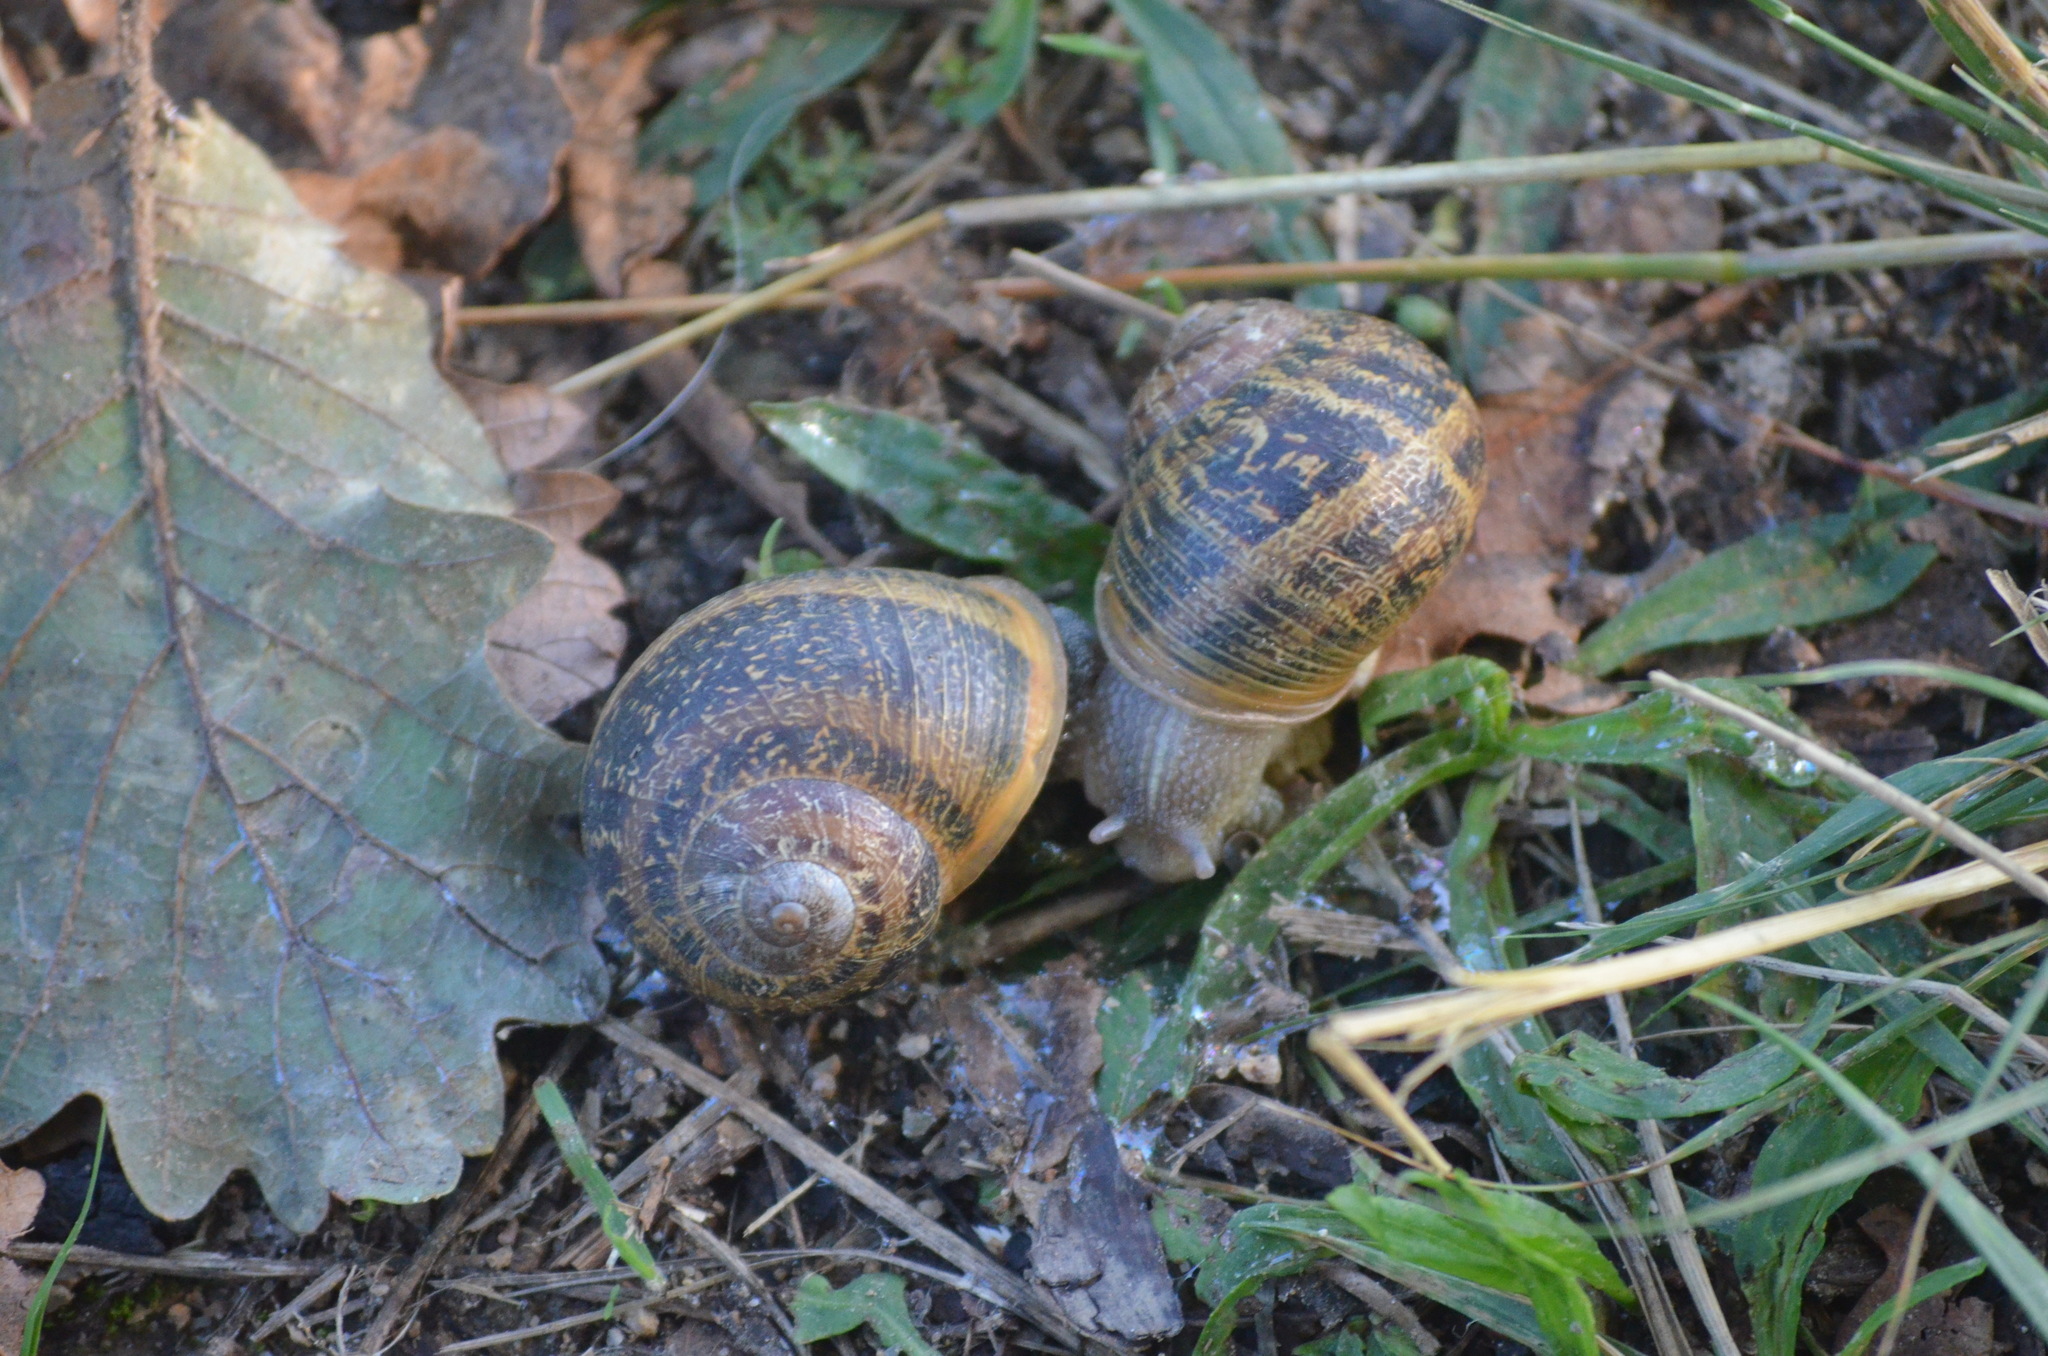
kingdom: Animalia
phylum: Mollusca
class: Gastropoda
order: Stylommatophora
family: Helicidae
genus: Cornu
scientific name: Cornu aspersum
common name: Brown garden snail
